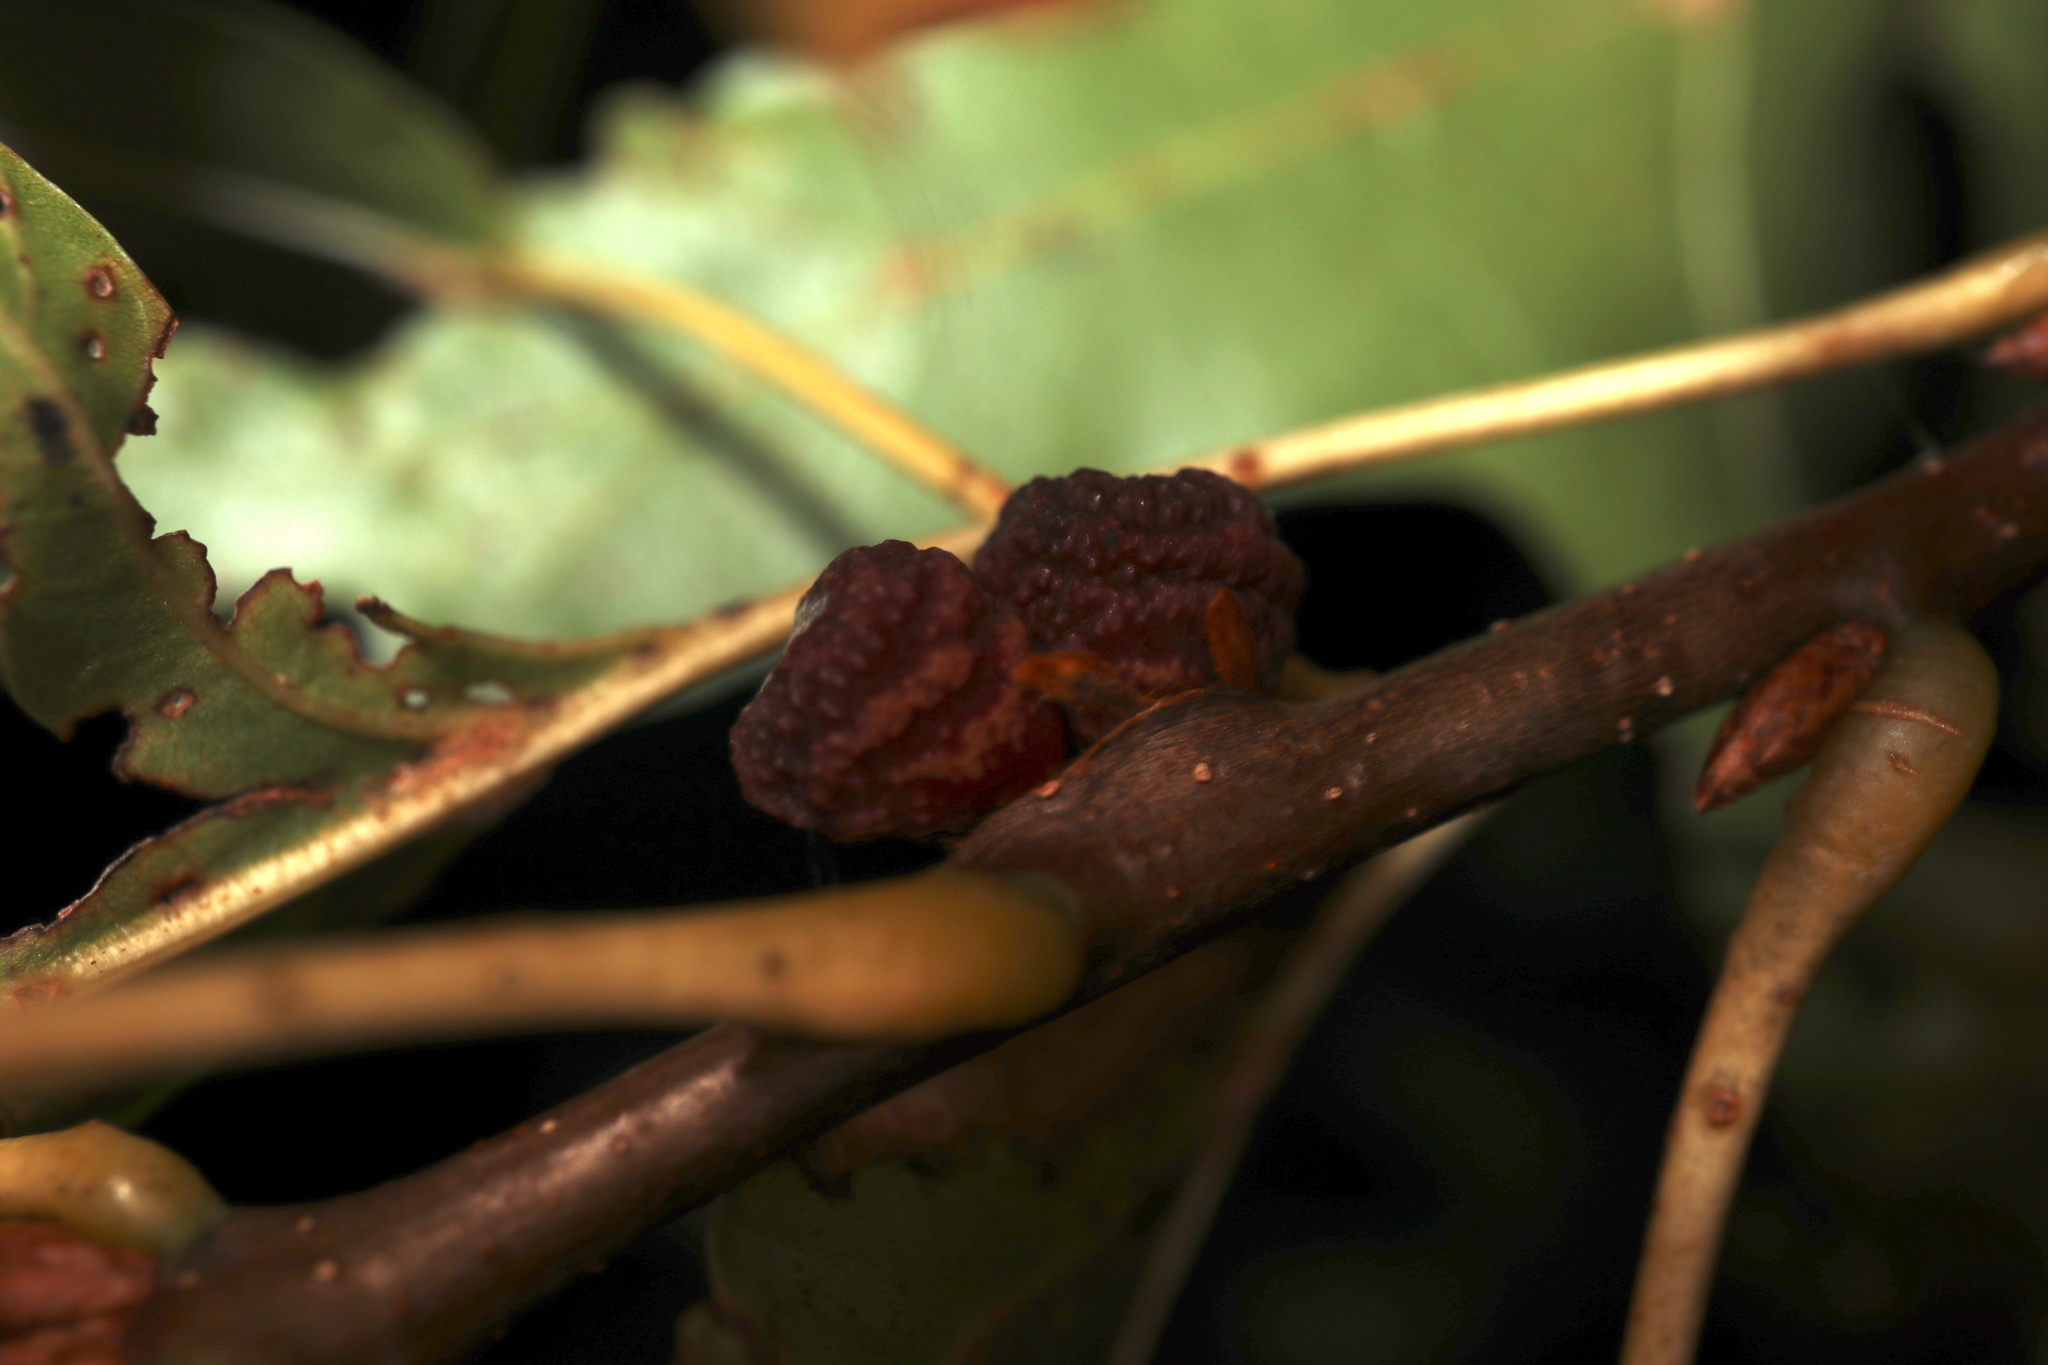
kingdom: Animalia
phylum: Arthropoda
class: Insecta
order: Hymenoptera
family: Cynipidae
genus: Kokkocynips
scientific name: Kokkocynips difficilis
